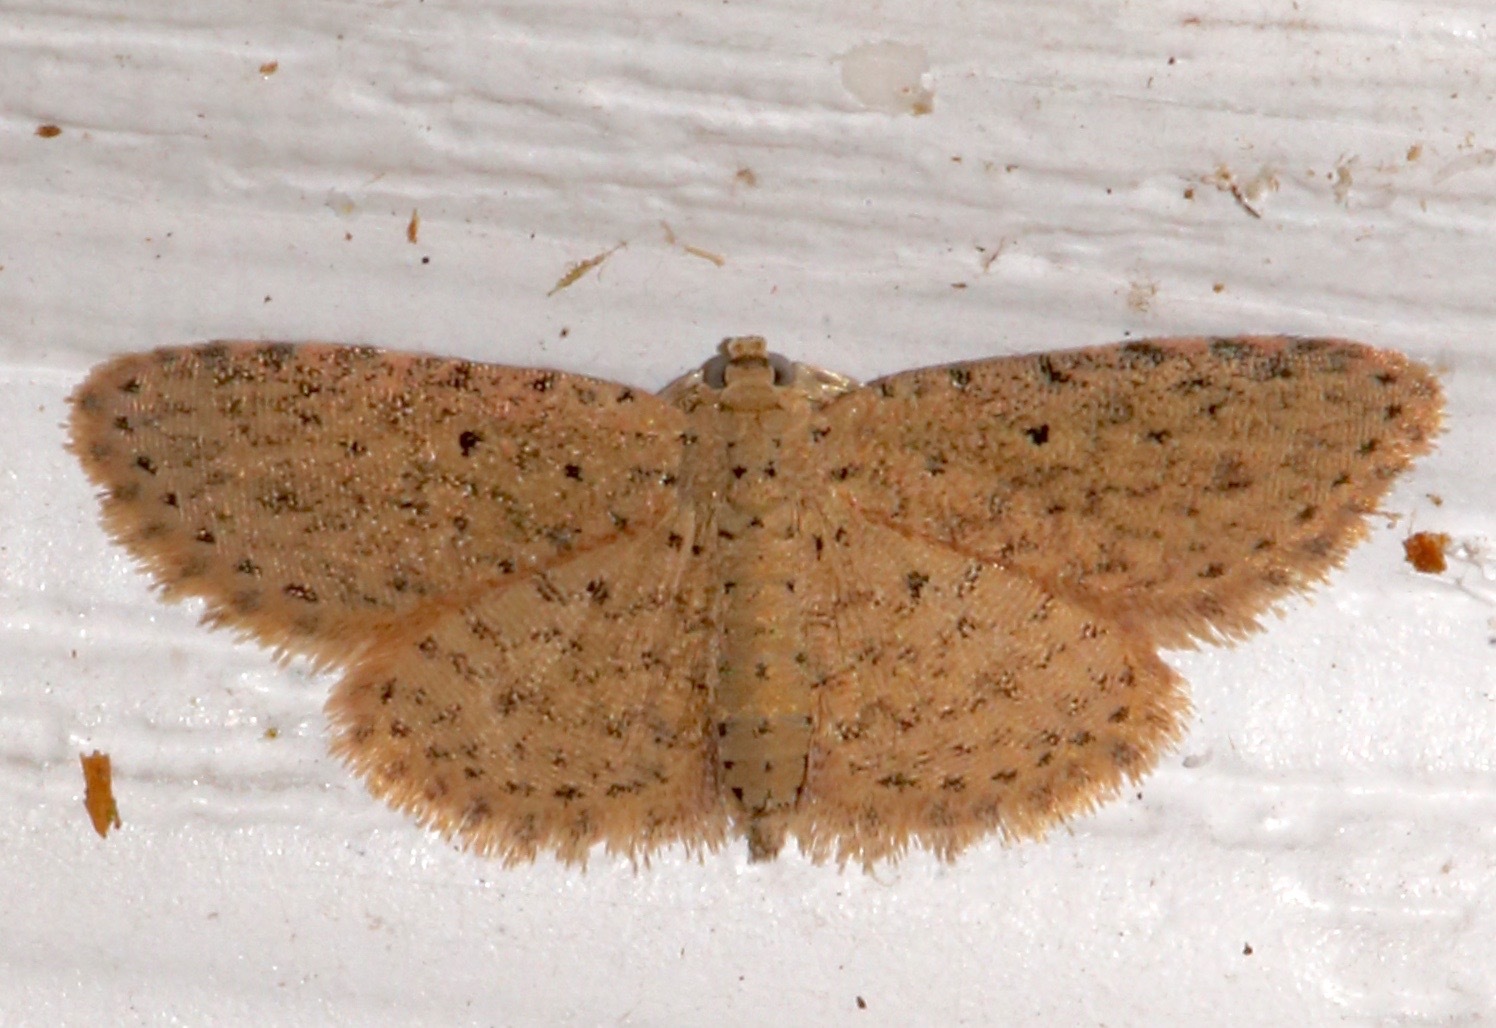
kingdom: Animalia
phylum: Arthropoda
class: Insecta
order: Lepidoptera
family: Erebidae
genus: Sigela
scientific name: Sigela lynx
